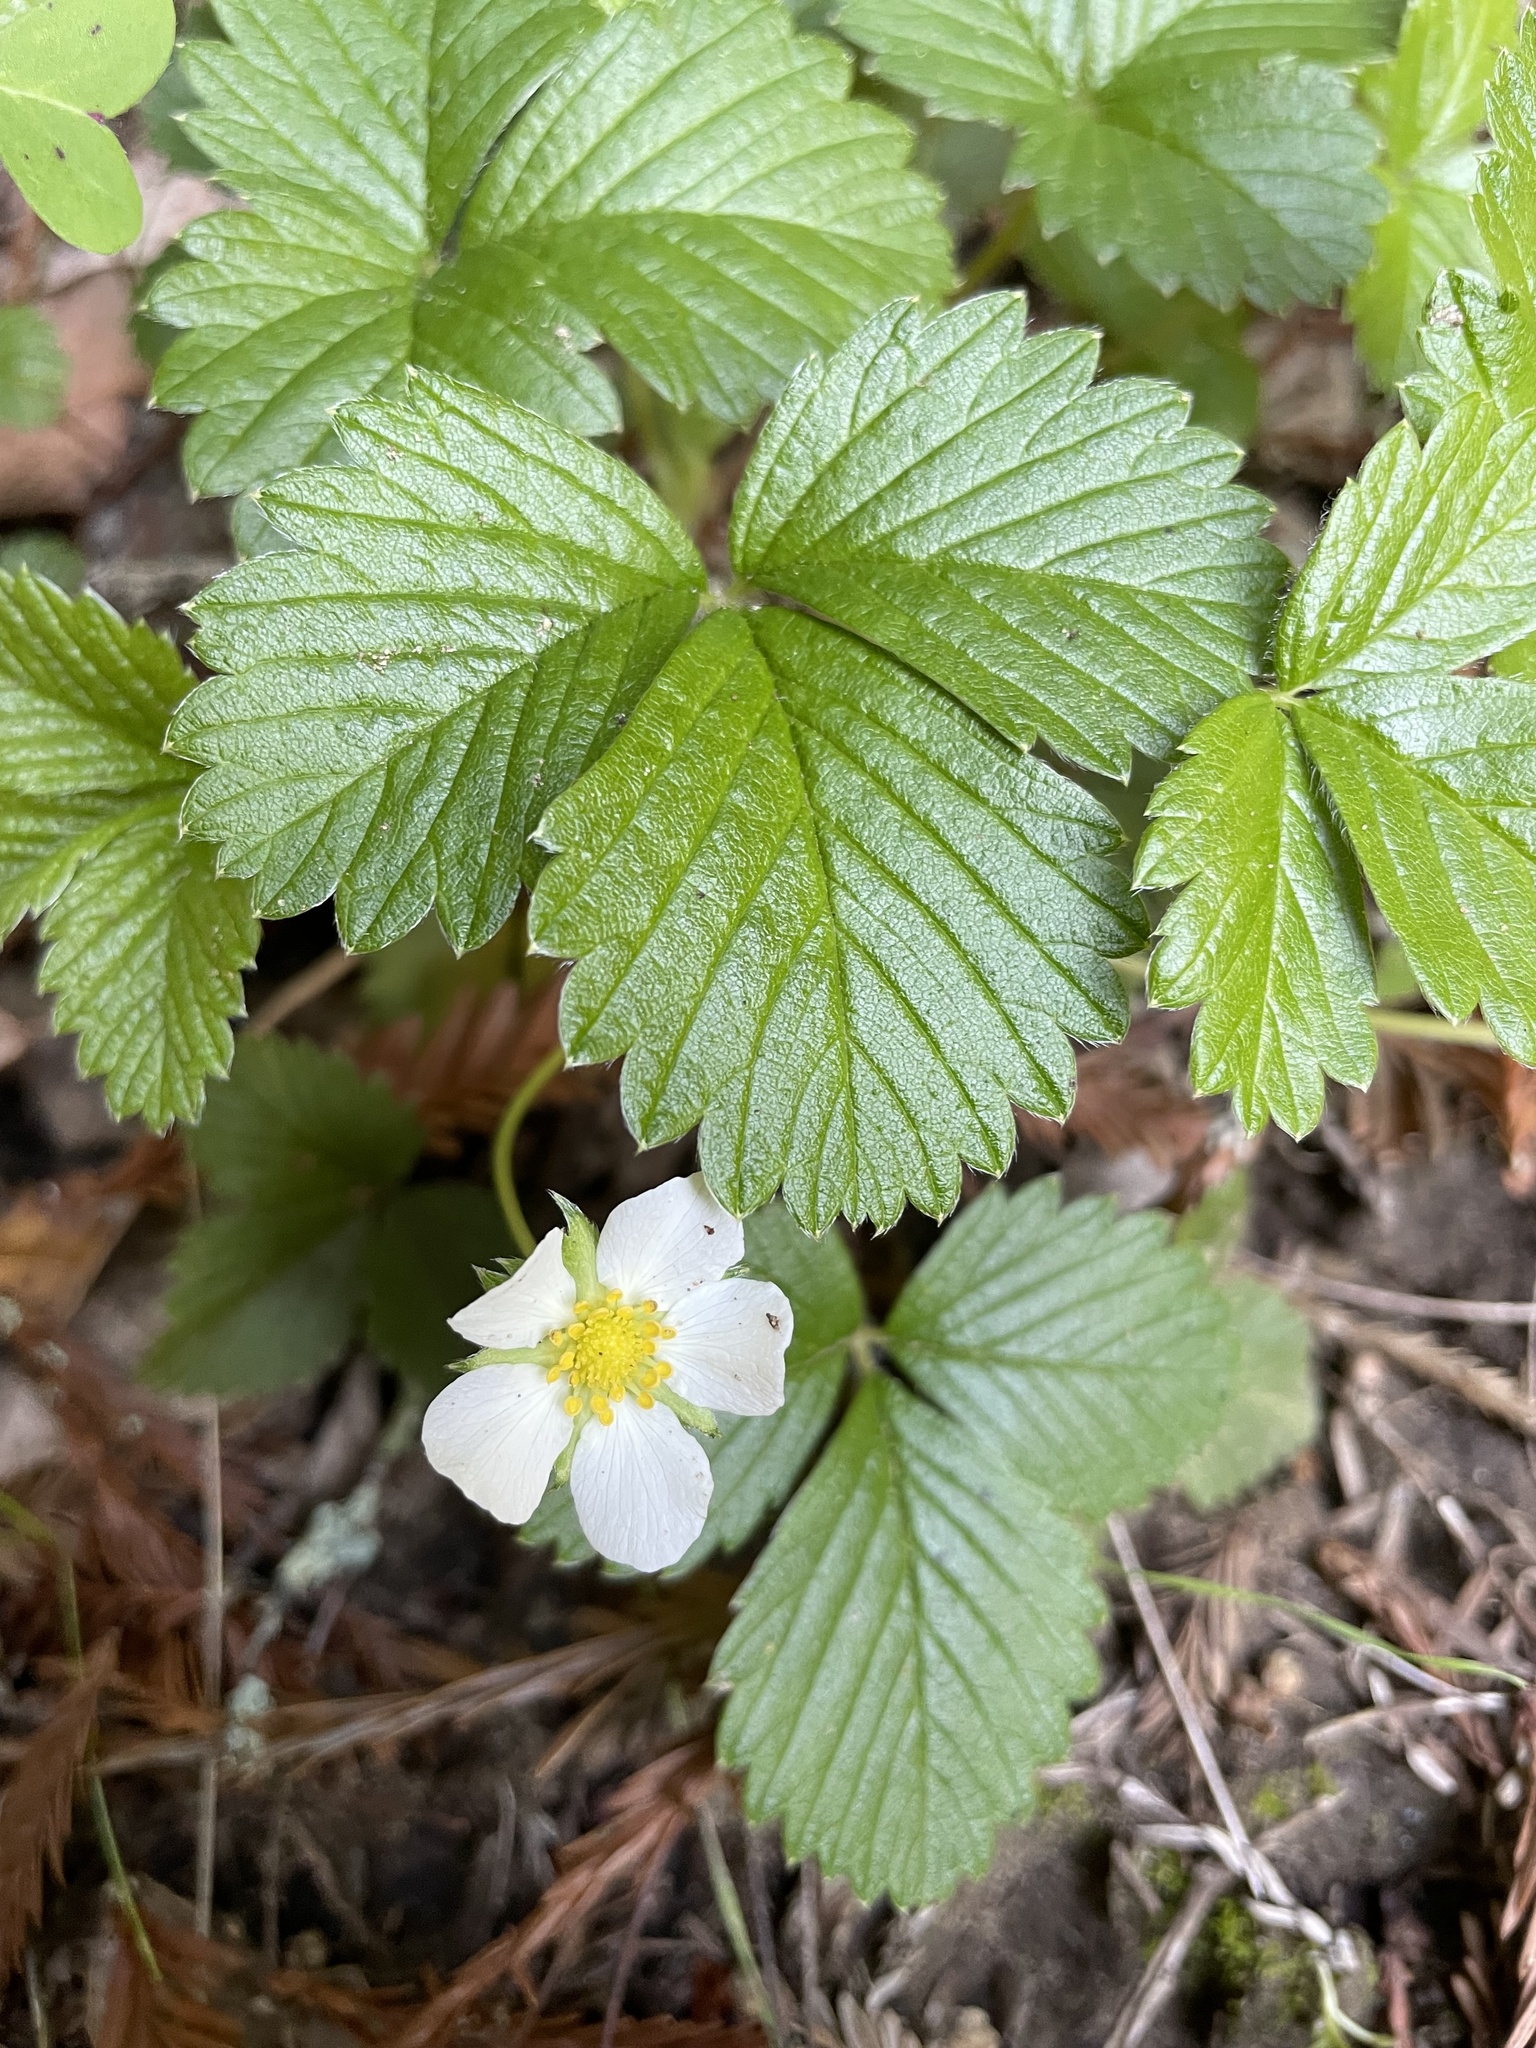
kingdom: Plantae
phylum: Tracheophyta
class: Magnoliopsida
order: Rosales
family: Rosaceae
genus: Fragaria
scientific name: Fragaria vesca
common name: Wild strawberry
